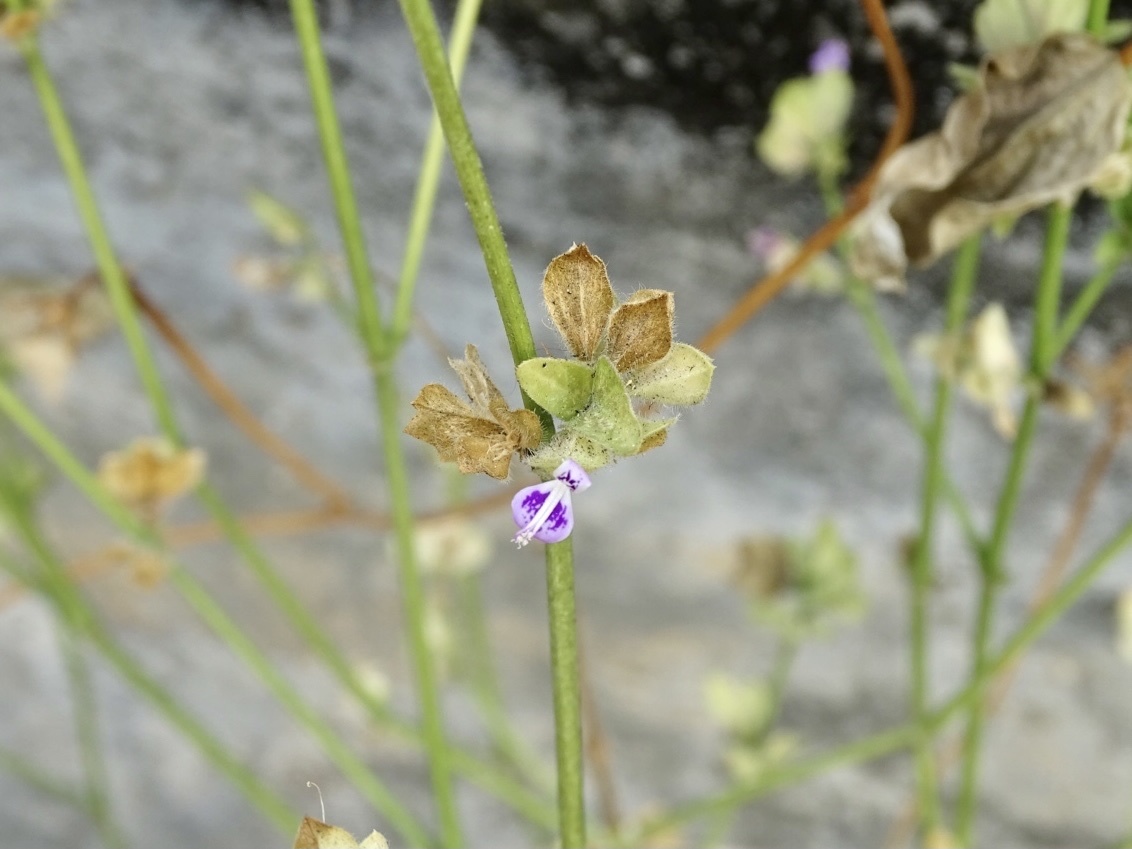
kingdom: Plantae
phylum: Tracheophyta
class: Magnoliopsida
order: Lamiales
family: Acanthaceae
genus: Dicliptera
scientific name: Dicliptera chinensis
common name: Chinese foldwing
